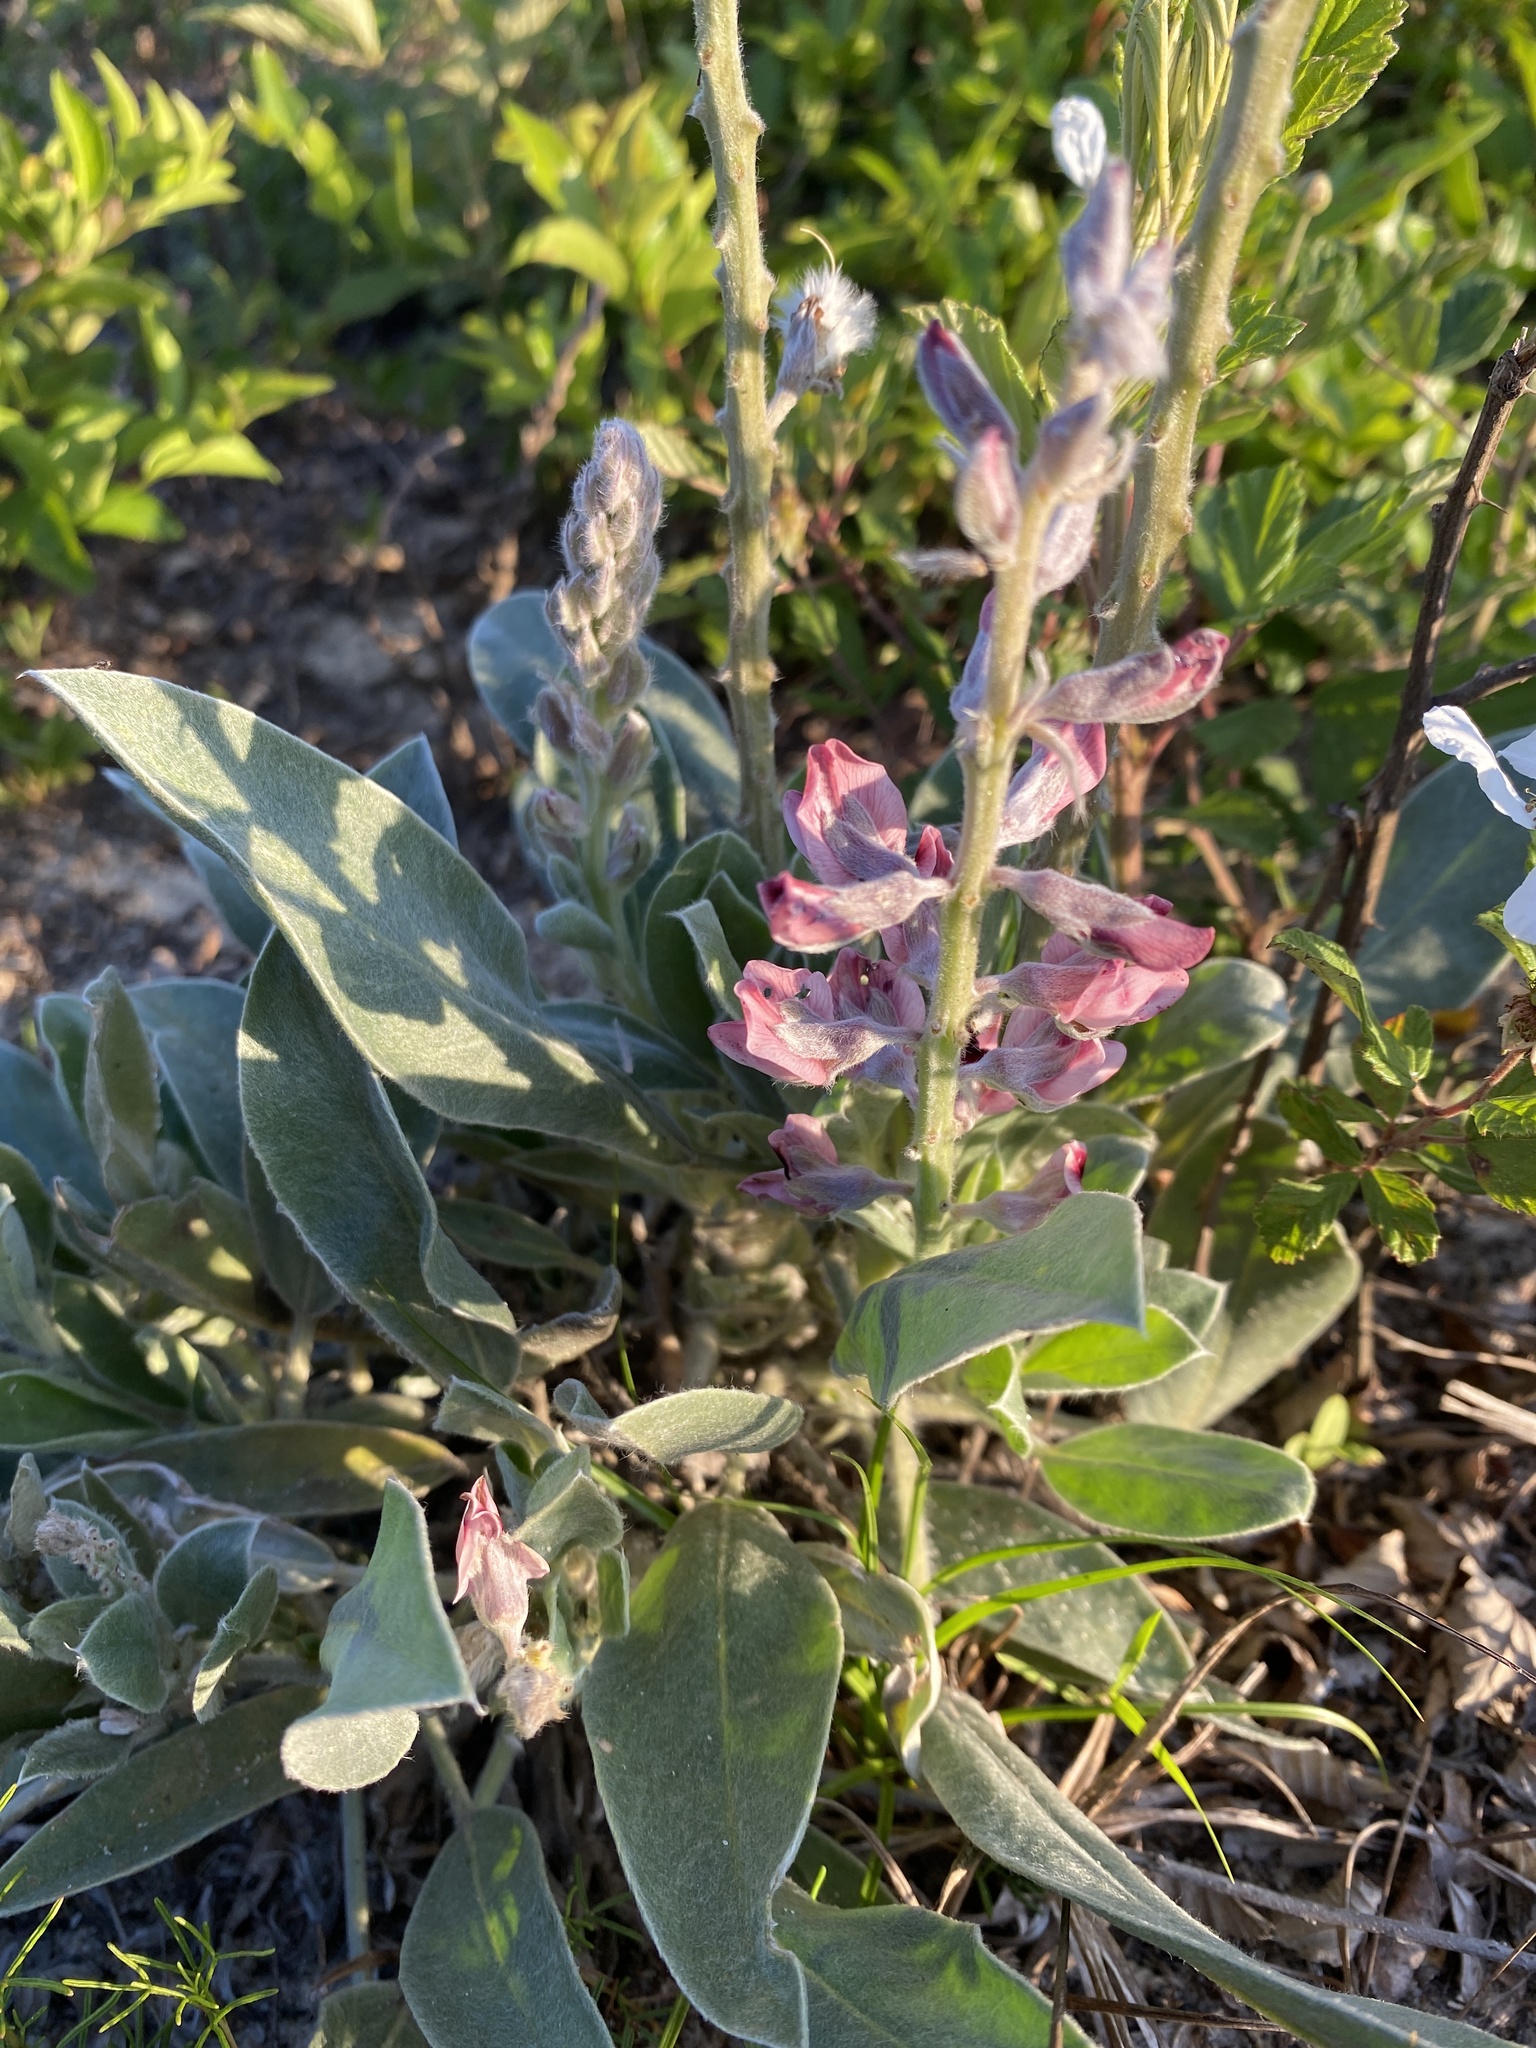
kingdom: Plantae
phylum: Tracheophyta
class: Magnoliopsida
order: Fabales
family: Fabaceae
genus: Lupinus
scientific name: Lupinus villosus
